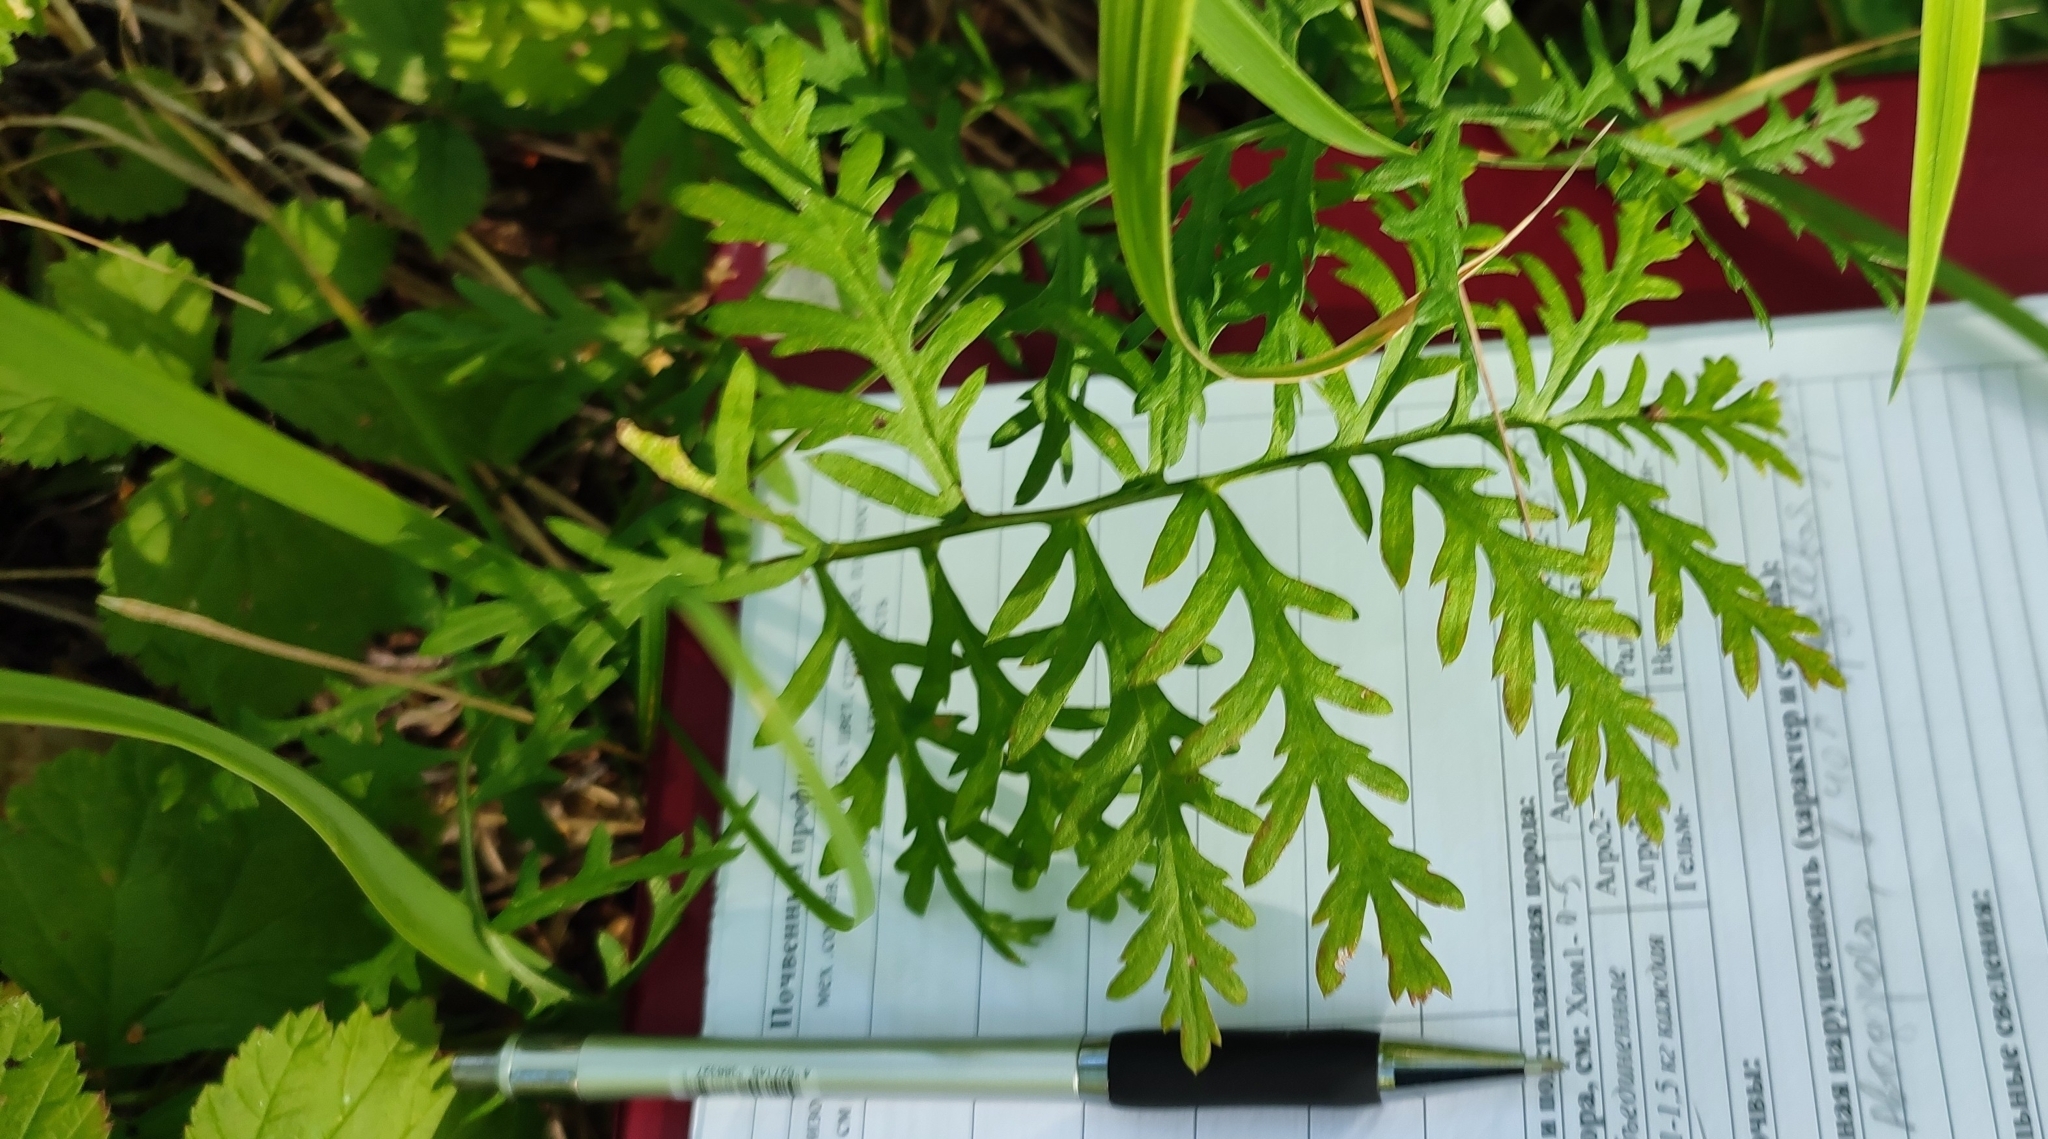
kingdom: Plantae
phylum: Tracheophyta
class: Magnoliopsida
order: Asterales
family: Asteraceae
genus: Artemisia
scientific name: Artemisia latifolia
